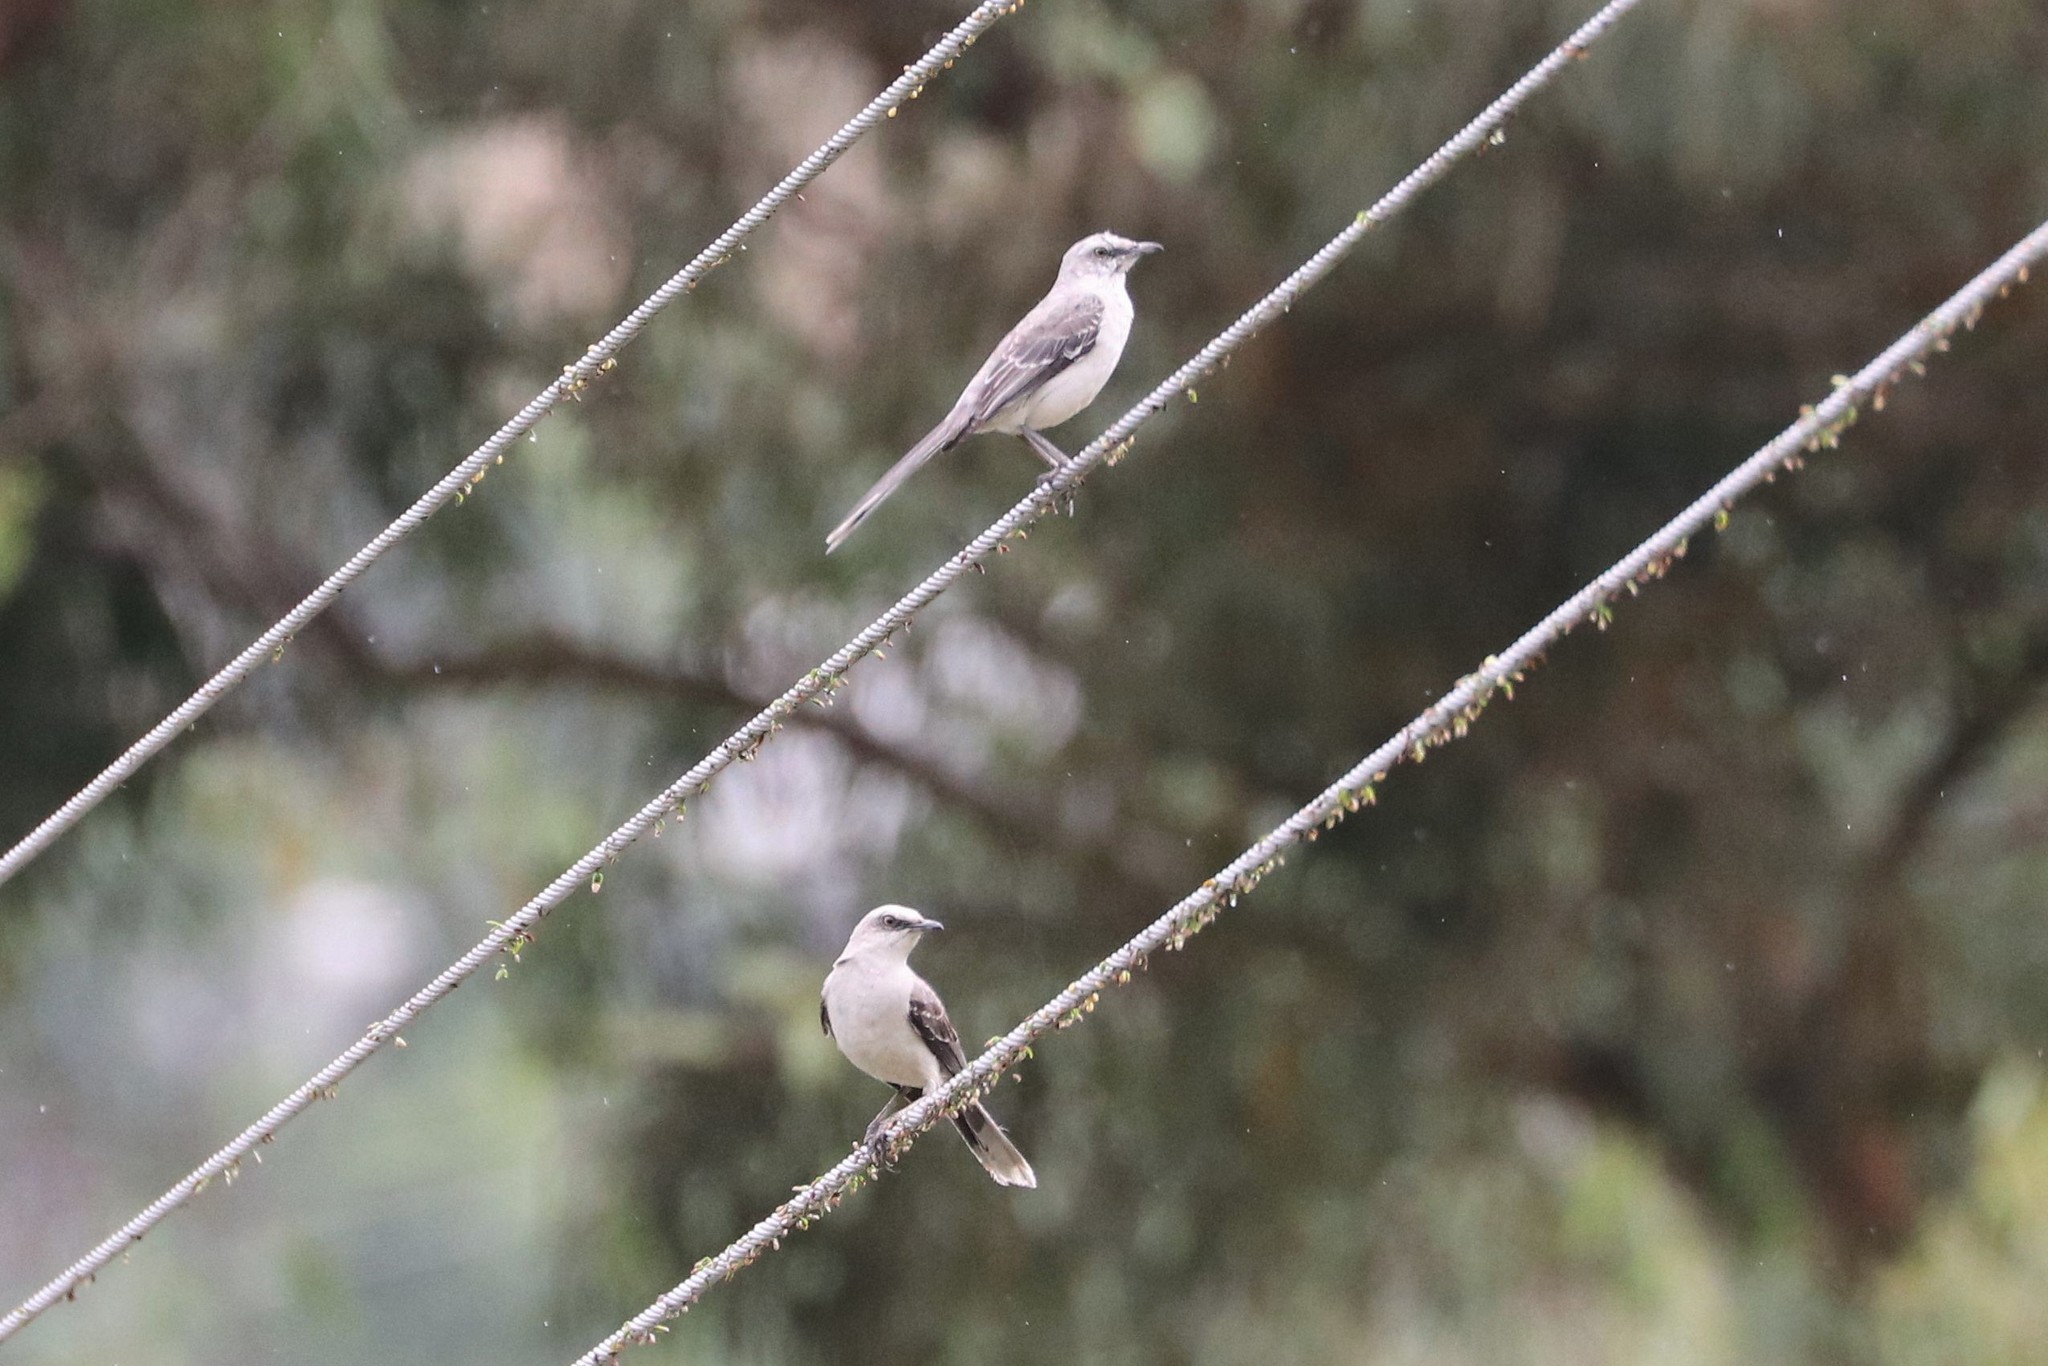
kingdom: Animalia
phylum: Chordata
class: Aves
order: Passeriformes
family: Mimidae
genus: Mimus
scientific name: Mimus gilvus
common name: Tropical mockingbird
